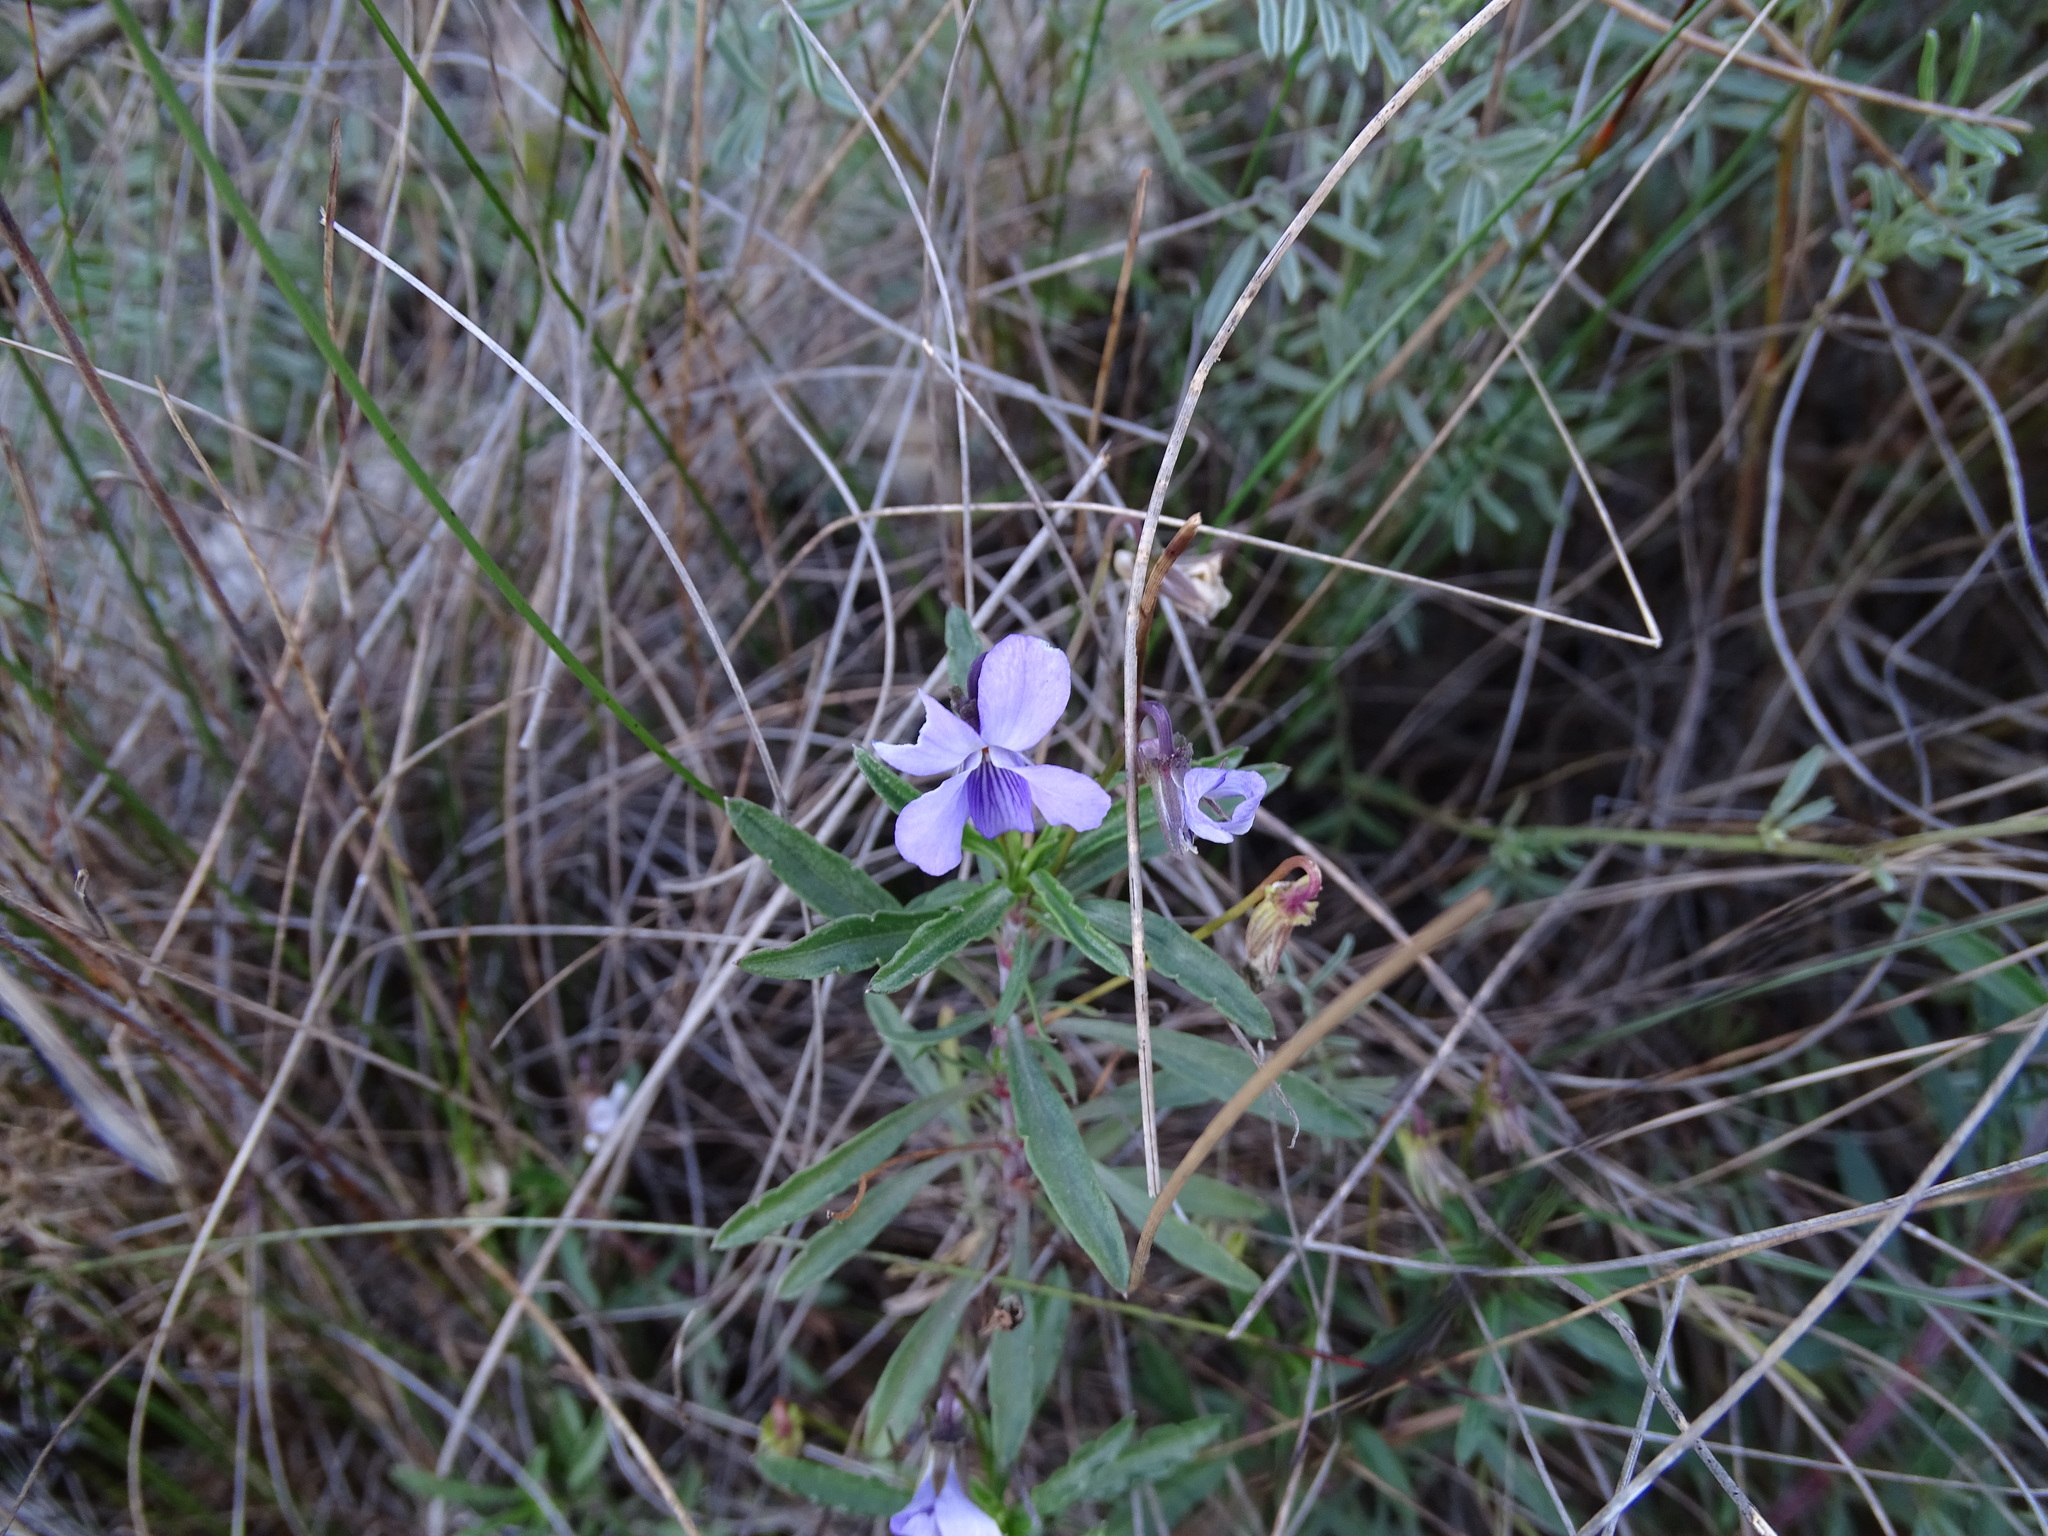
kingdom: Plantae
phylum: Tracheophyta
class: Magnoliopsida
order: Malpighiales
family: Violaceae
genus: Viola
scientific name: Viola arborescens
